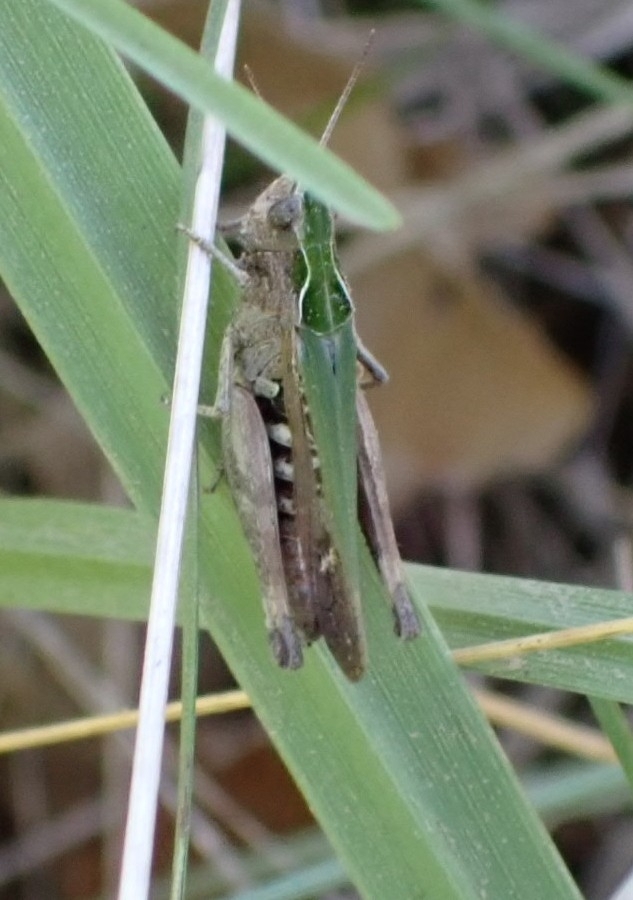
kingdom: Animalia
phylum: Arthropoda
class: Insecta
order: Orthoptera
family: Acrididae
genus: Omocestus
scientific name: Omocestus rufipes
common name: Woodland grasshopper
